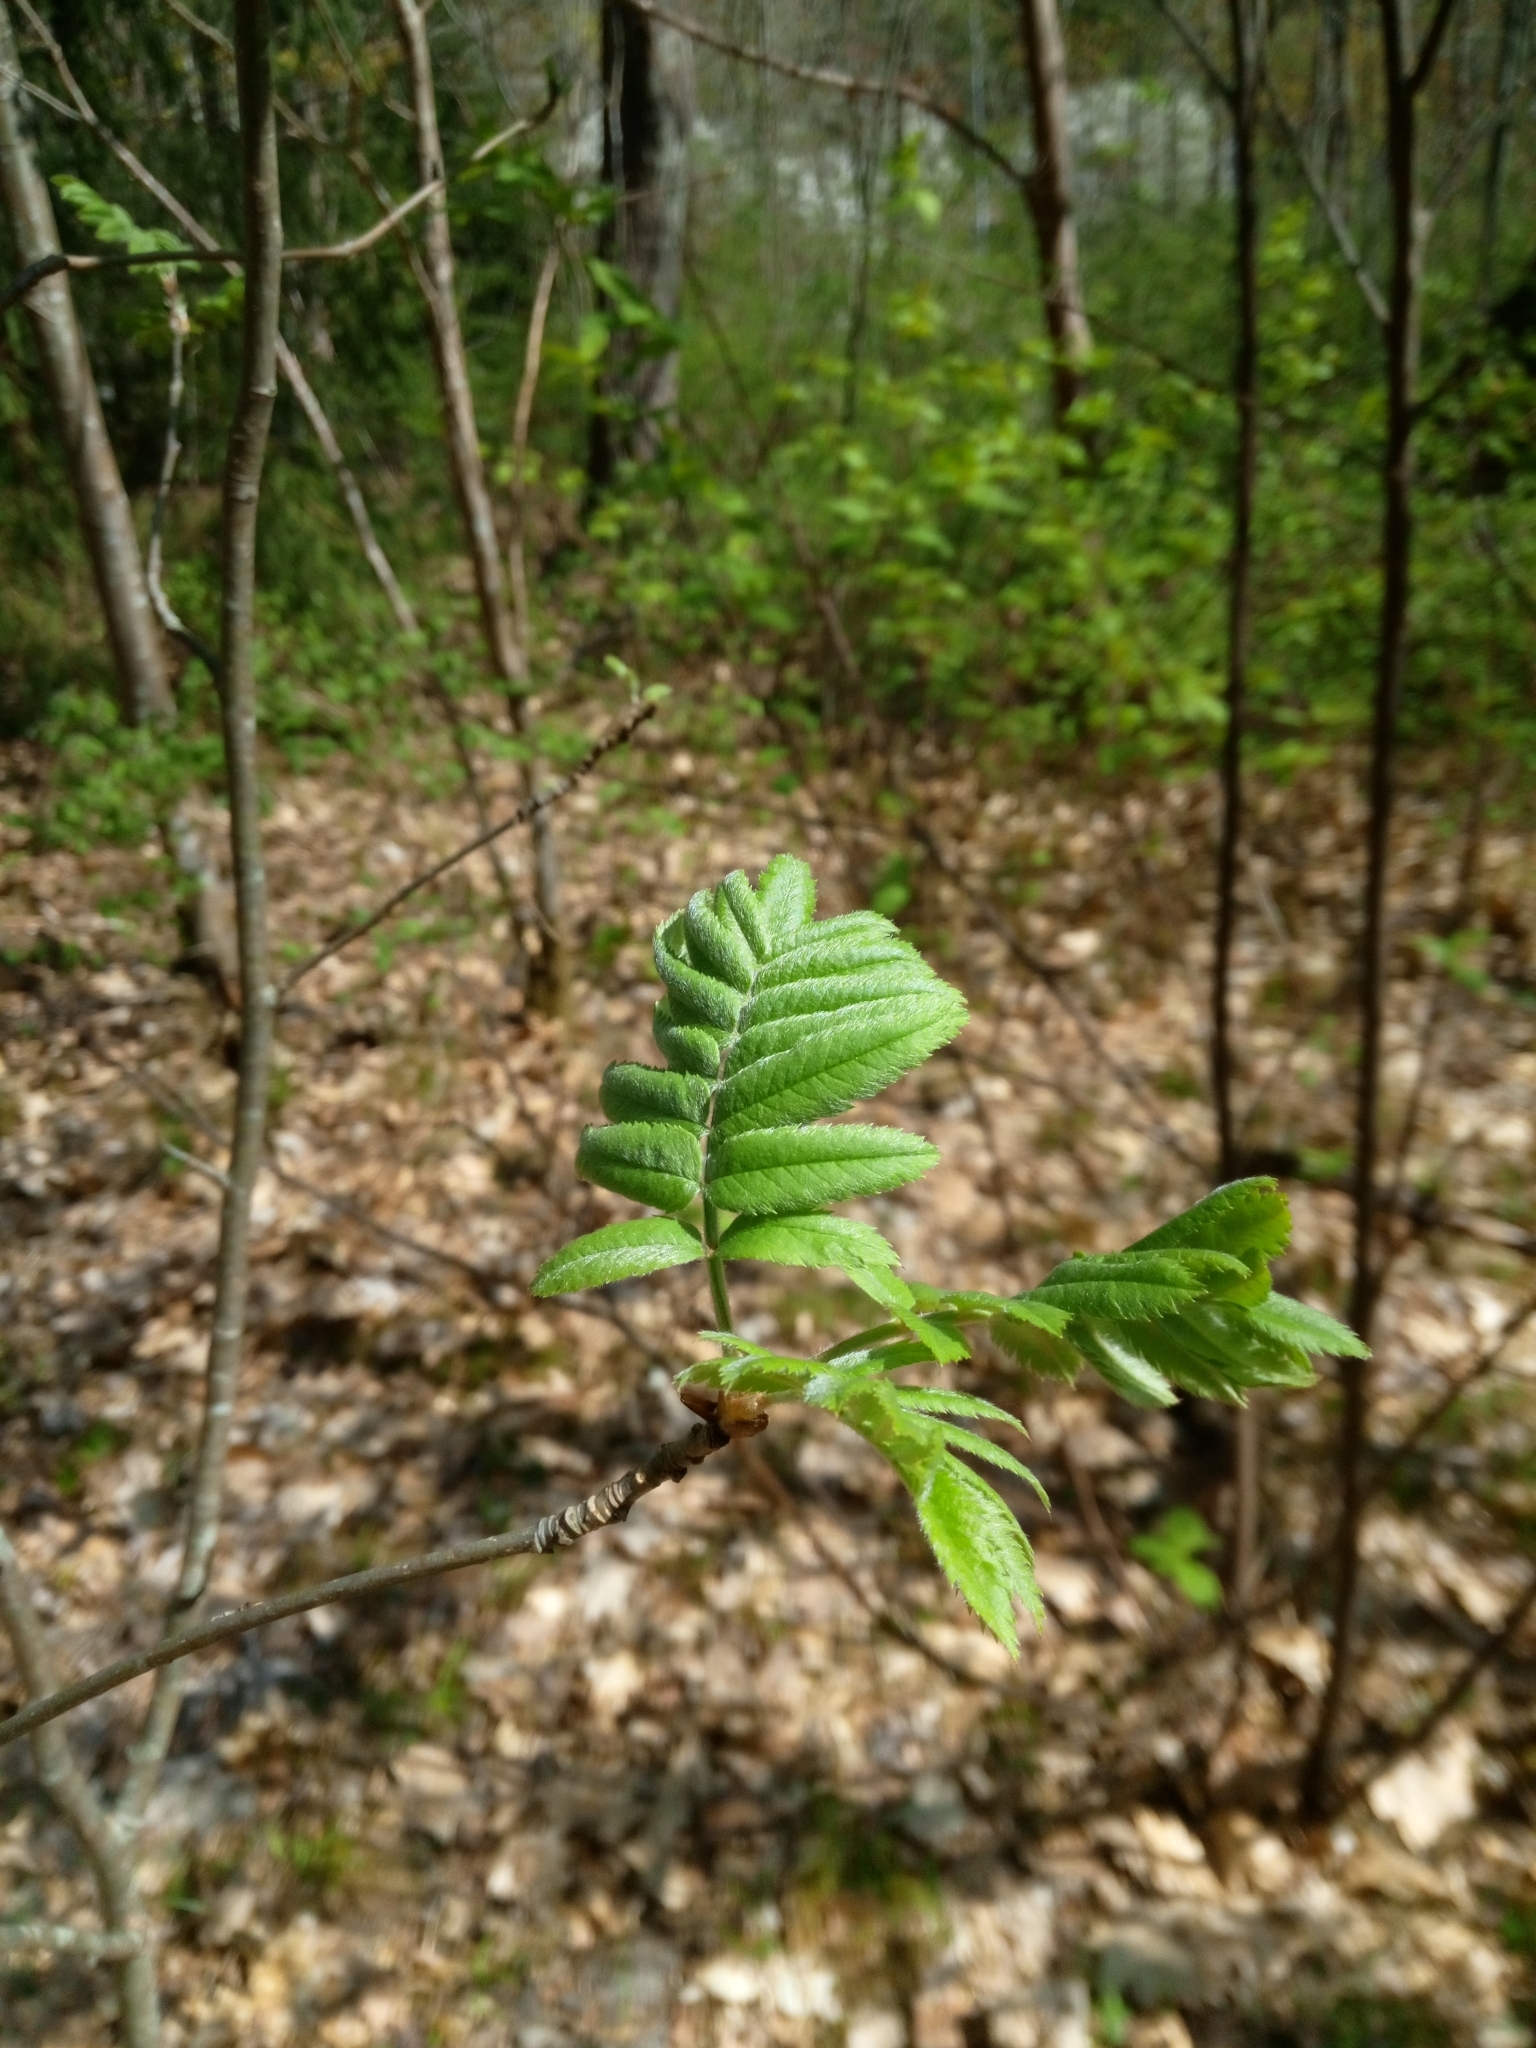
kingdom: Plantae
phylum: Tracheophyta
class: Magnoliopsida
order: Rosales
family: Rosaceae
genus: Sorbus
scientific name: Sorbus aucuparia
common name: Rowan
